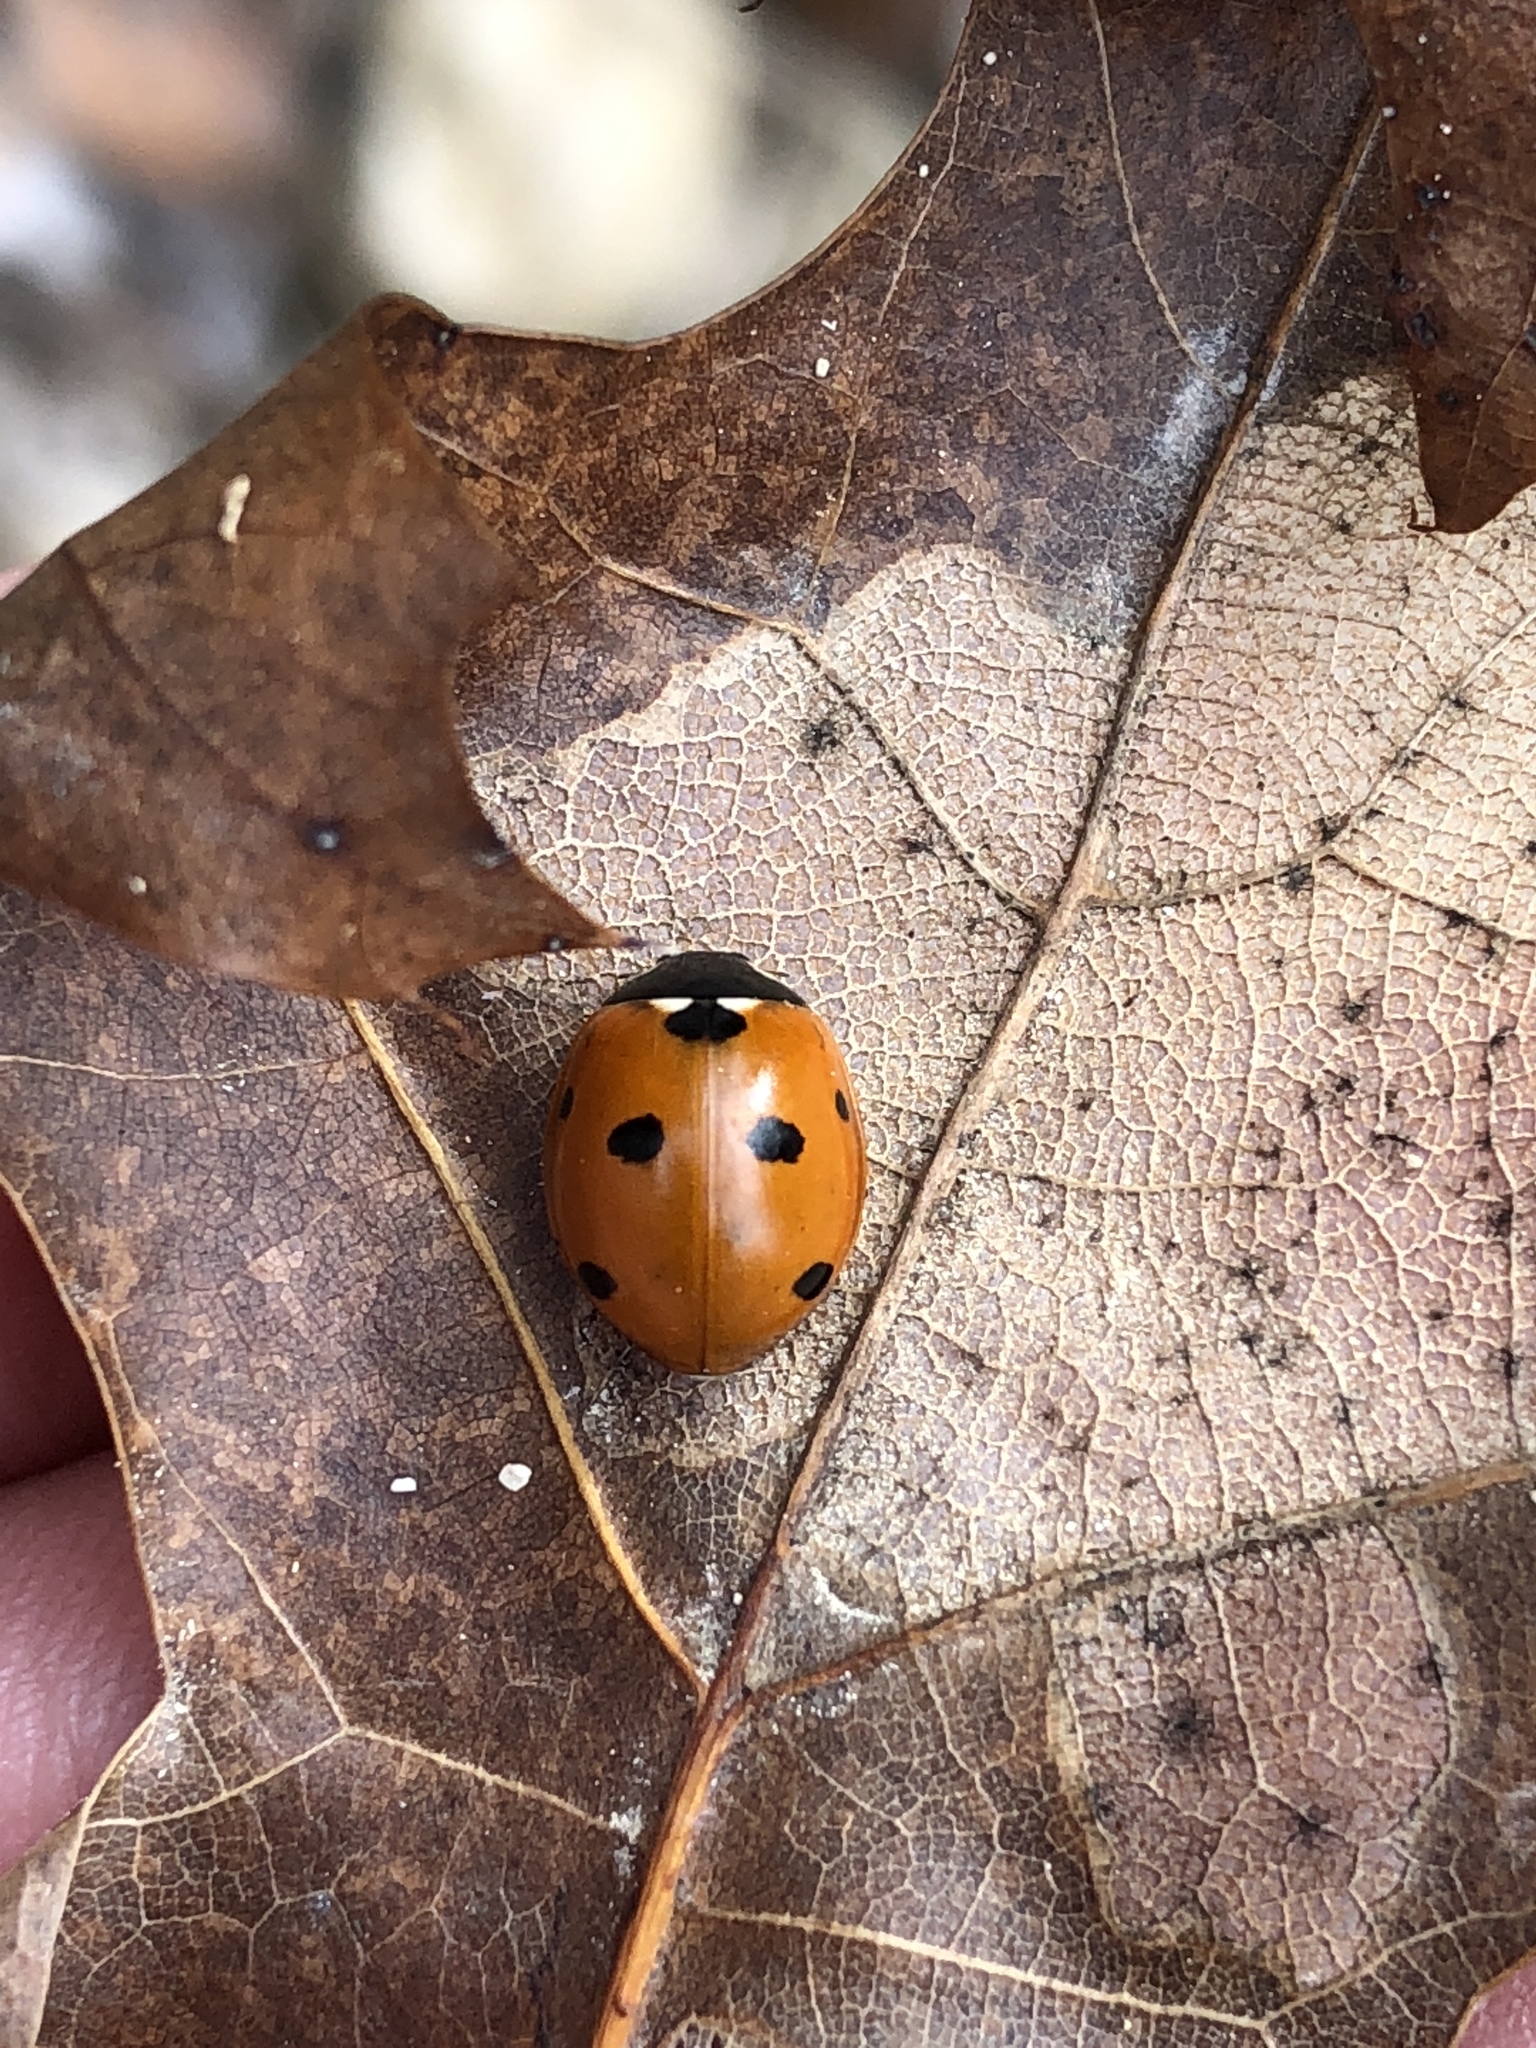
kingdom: Animalia
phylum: Arthropoda
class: Insecta
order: Coleoptera
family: Coccinellidae
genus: Coccinella
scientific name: Coccinella septempunctata
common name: Sevenspotted lady beetle
